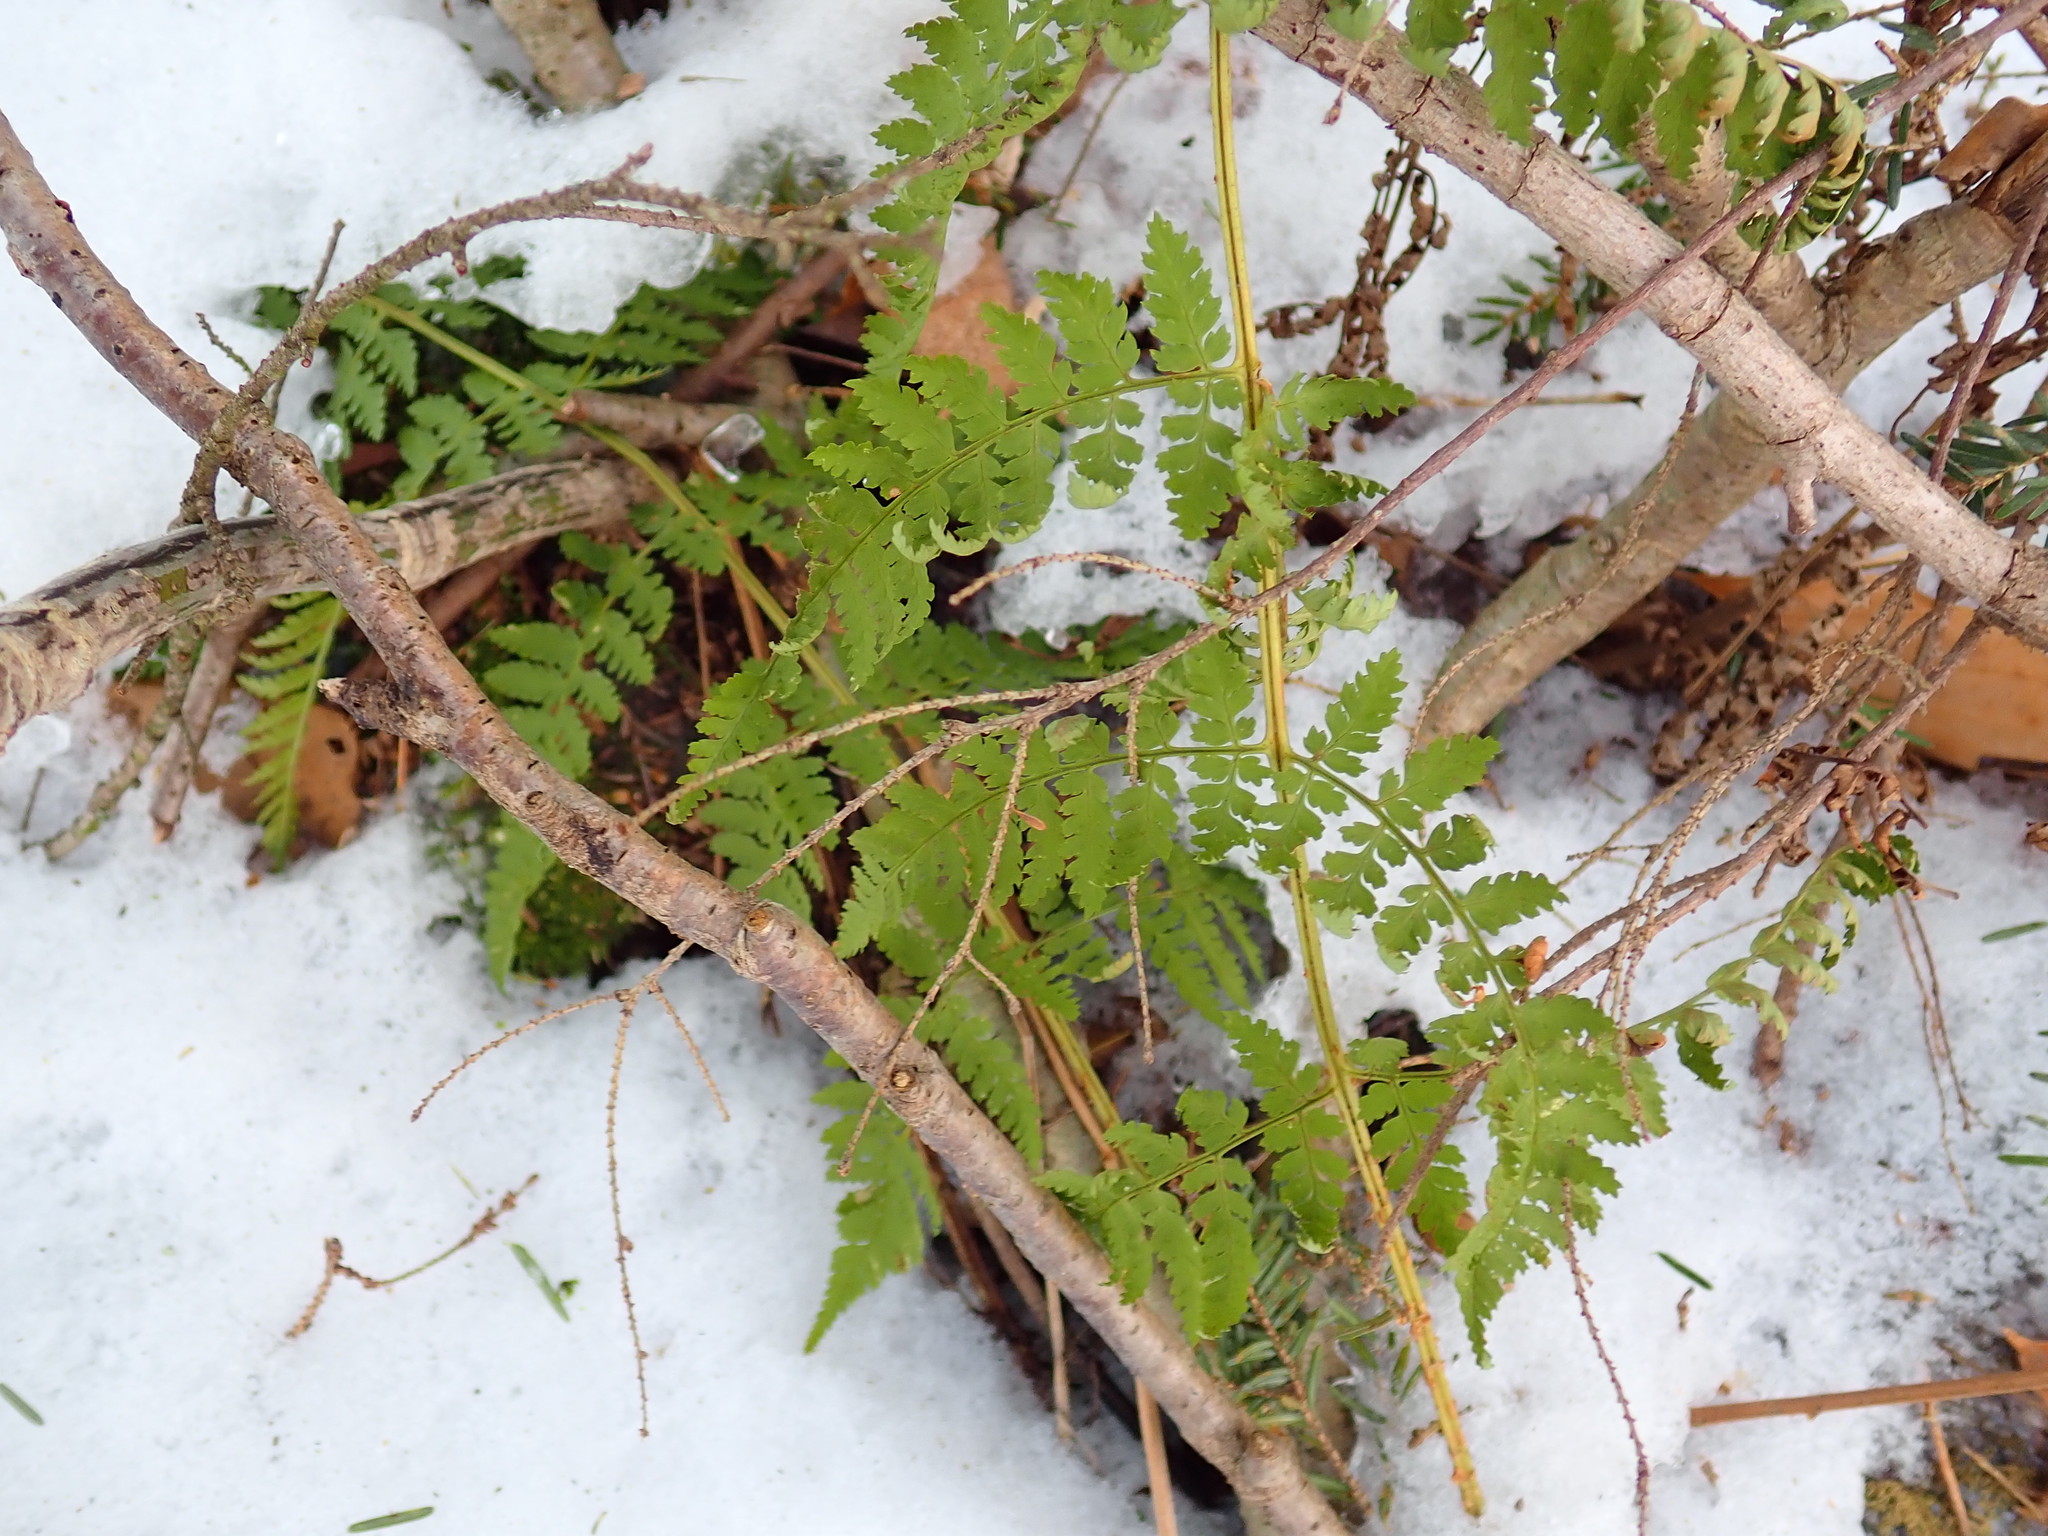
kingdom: Plantae
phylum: Tracheophyta
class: Polypodiopsida
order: Polypodiales
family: Dryopteridaceae
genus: Dryopteris
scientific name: Dryopteris intermedia
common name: Evergreen wood fern
